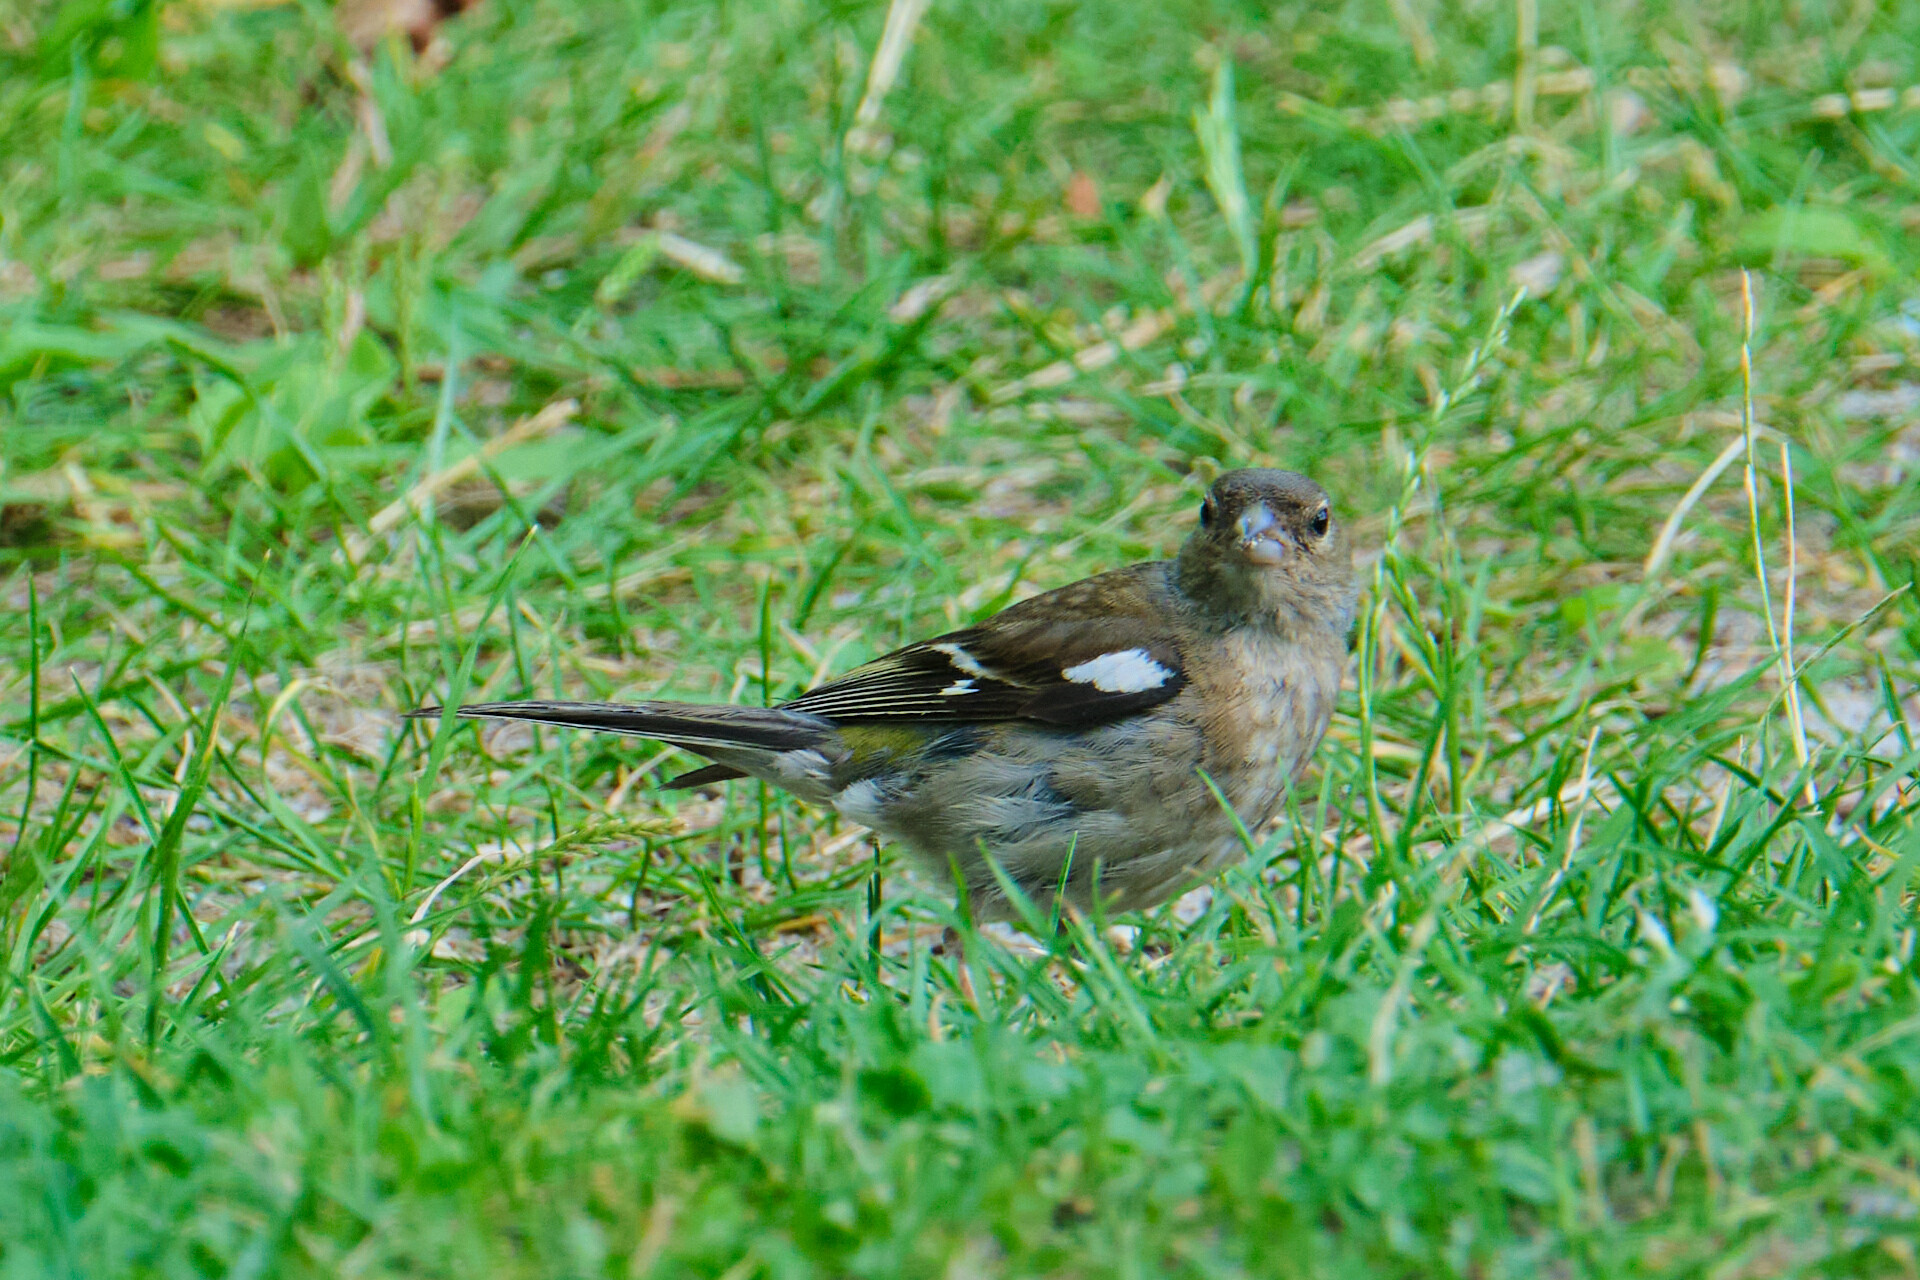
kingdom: Animalia
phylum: Chordata
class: Aves
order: Passeriformes
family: Fringillidae
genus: Fringilla
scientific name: Fringilla coelebs
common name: Common chaffinch
